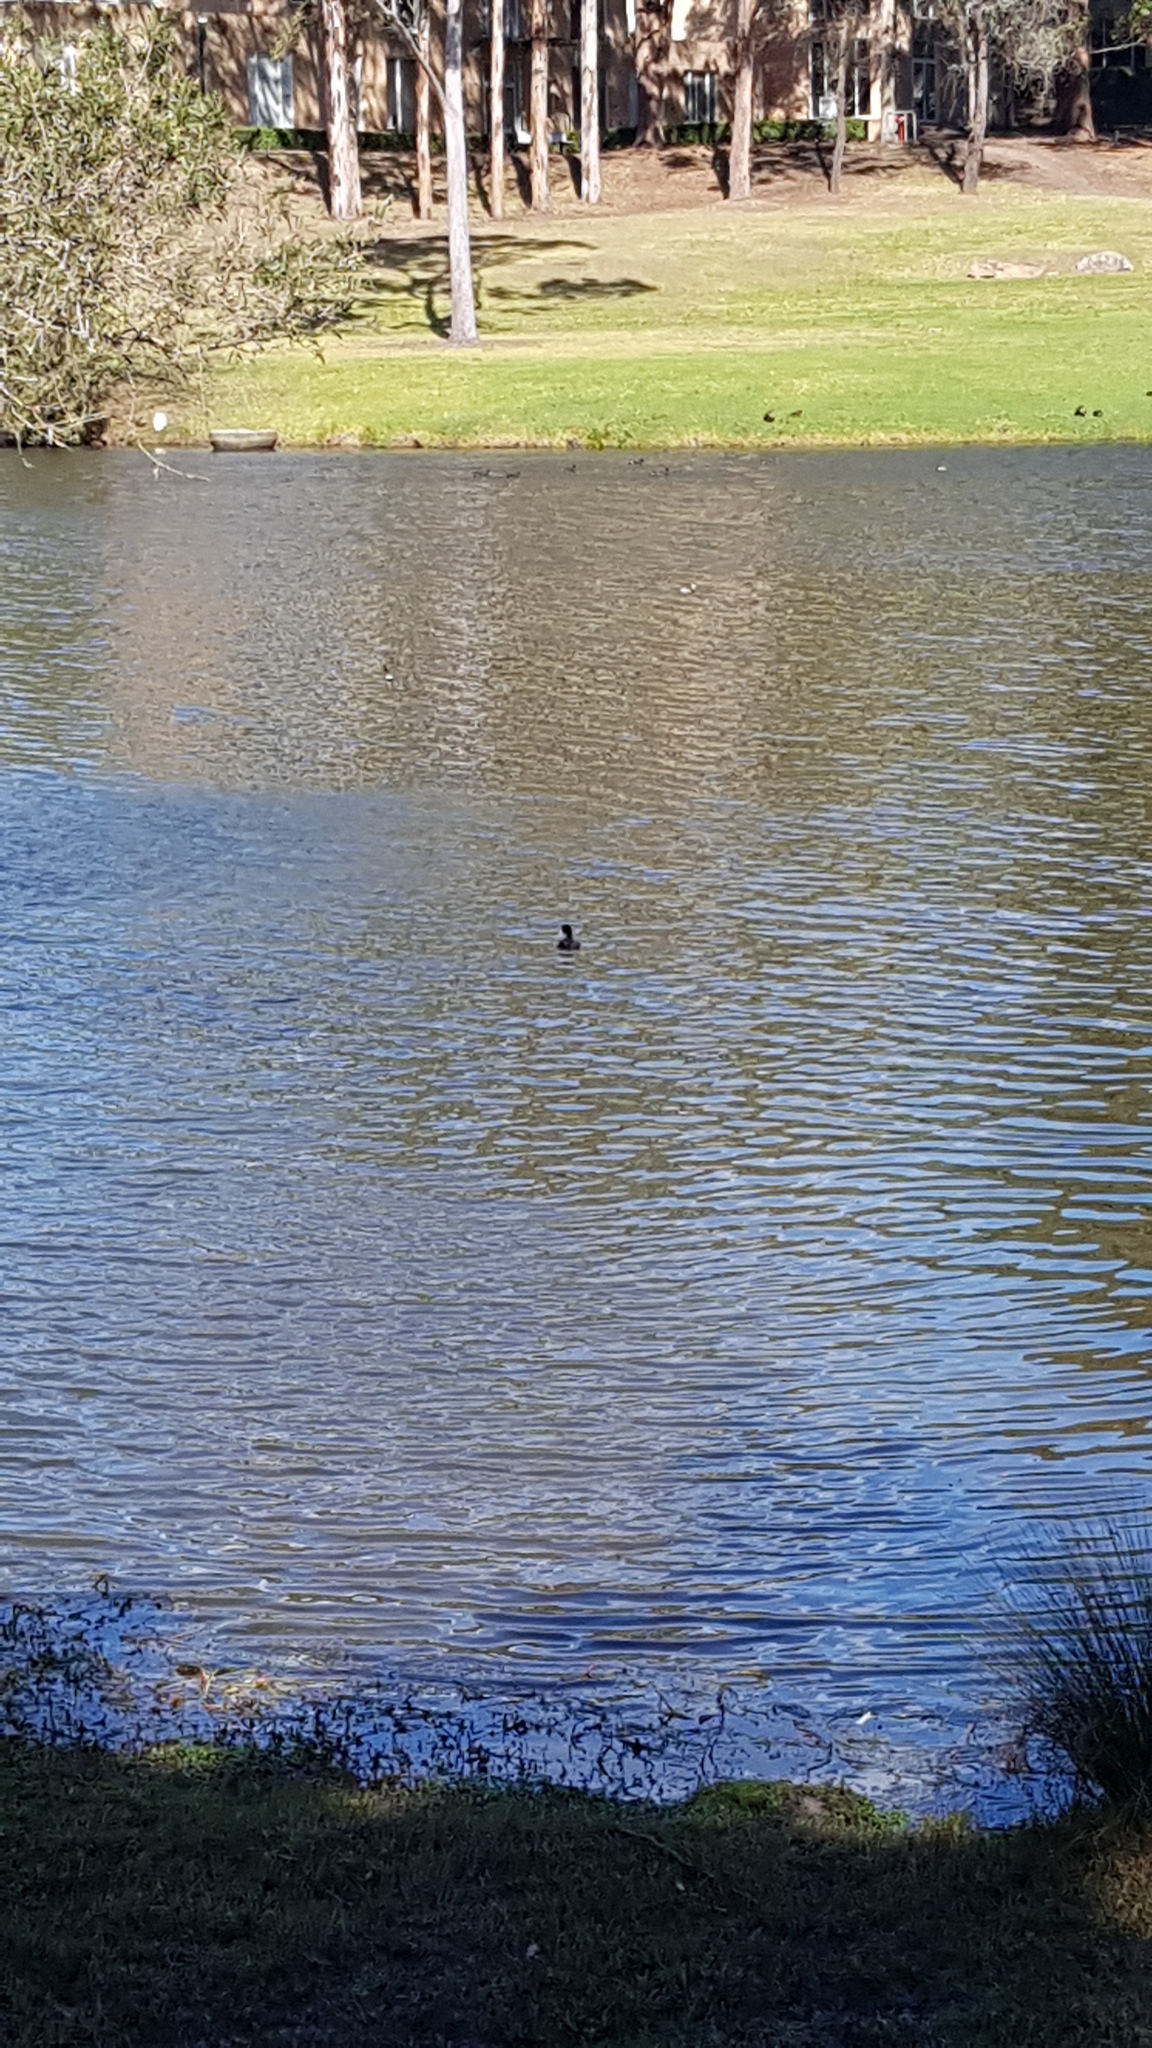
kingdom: Animalia
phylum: Chordata
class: Aves
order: Gruiformes
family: Rallidae
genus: Fulica
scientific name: Fulica atra
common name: Eurasian coot
